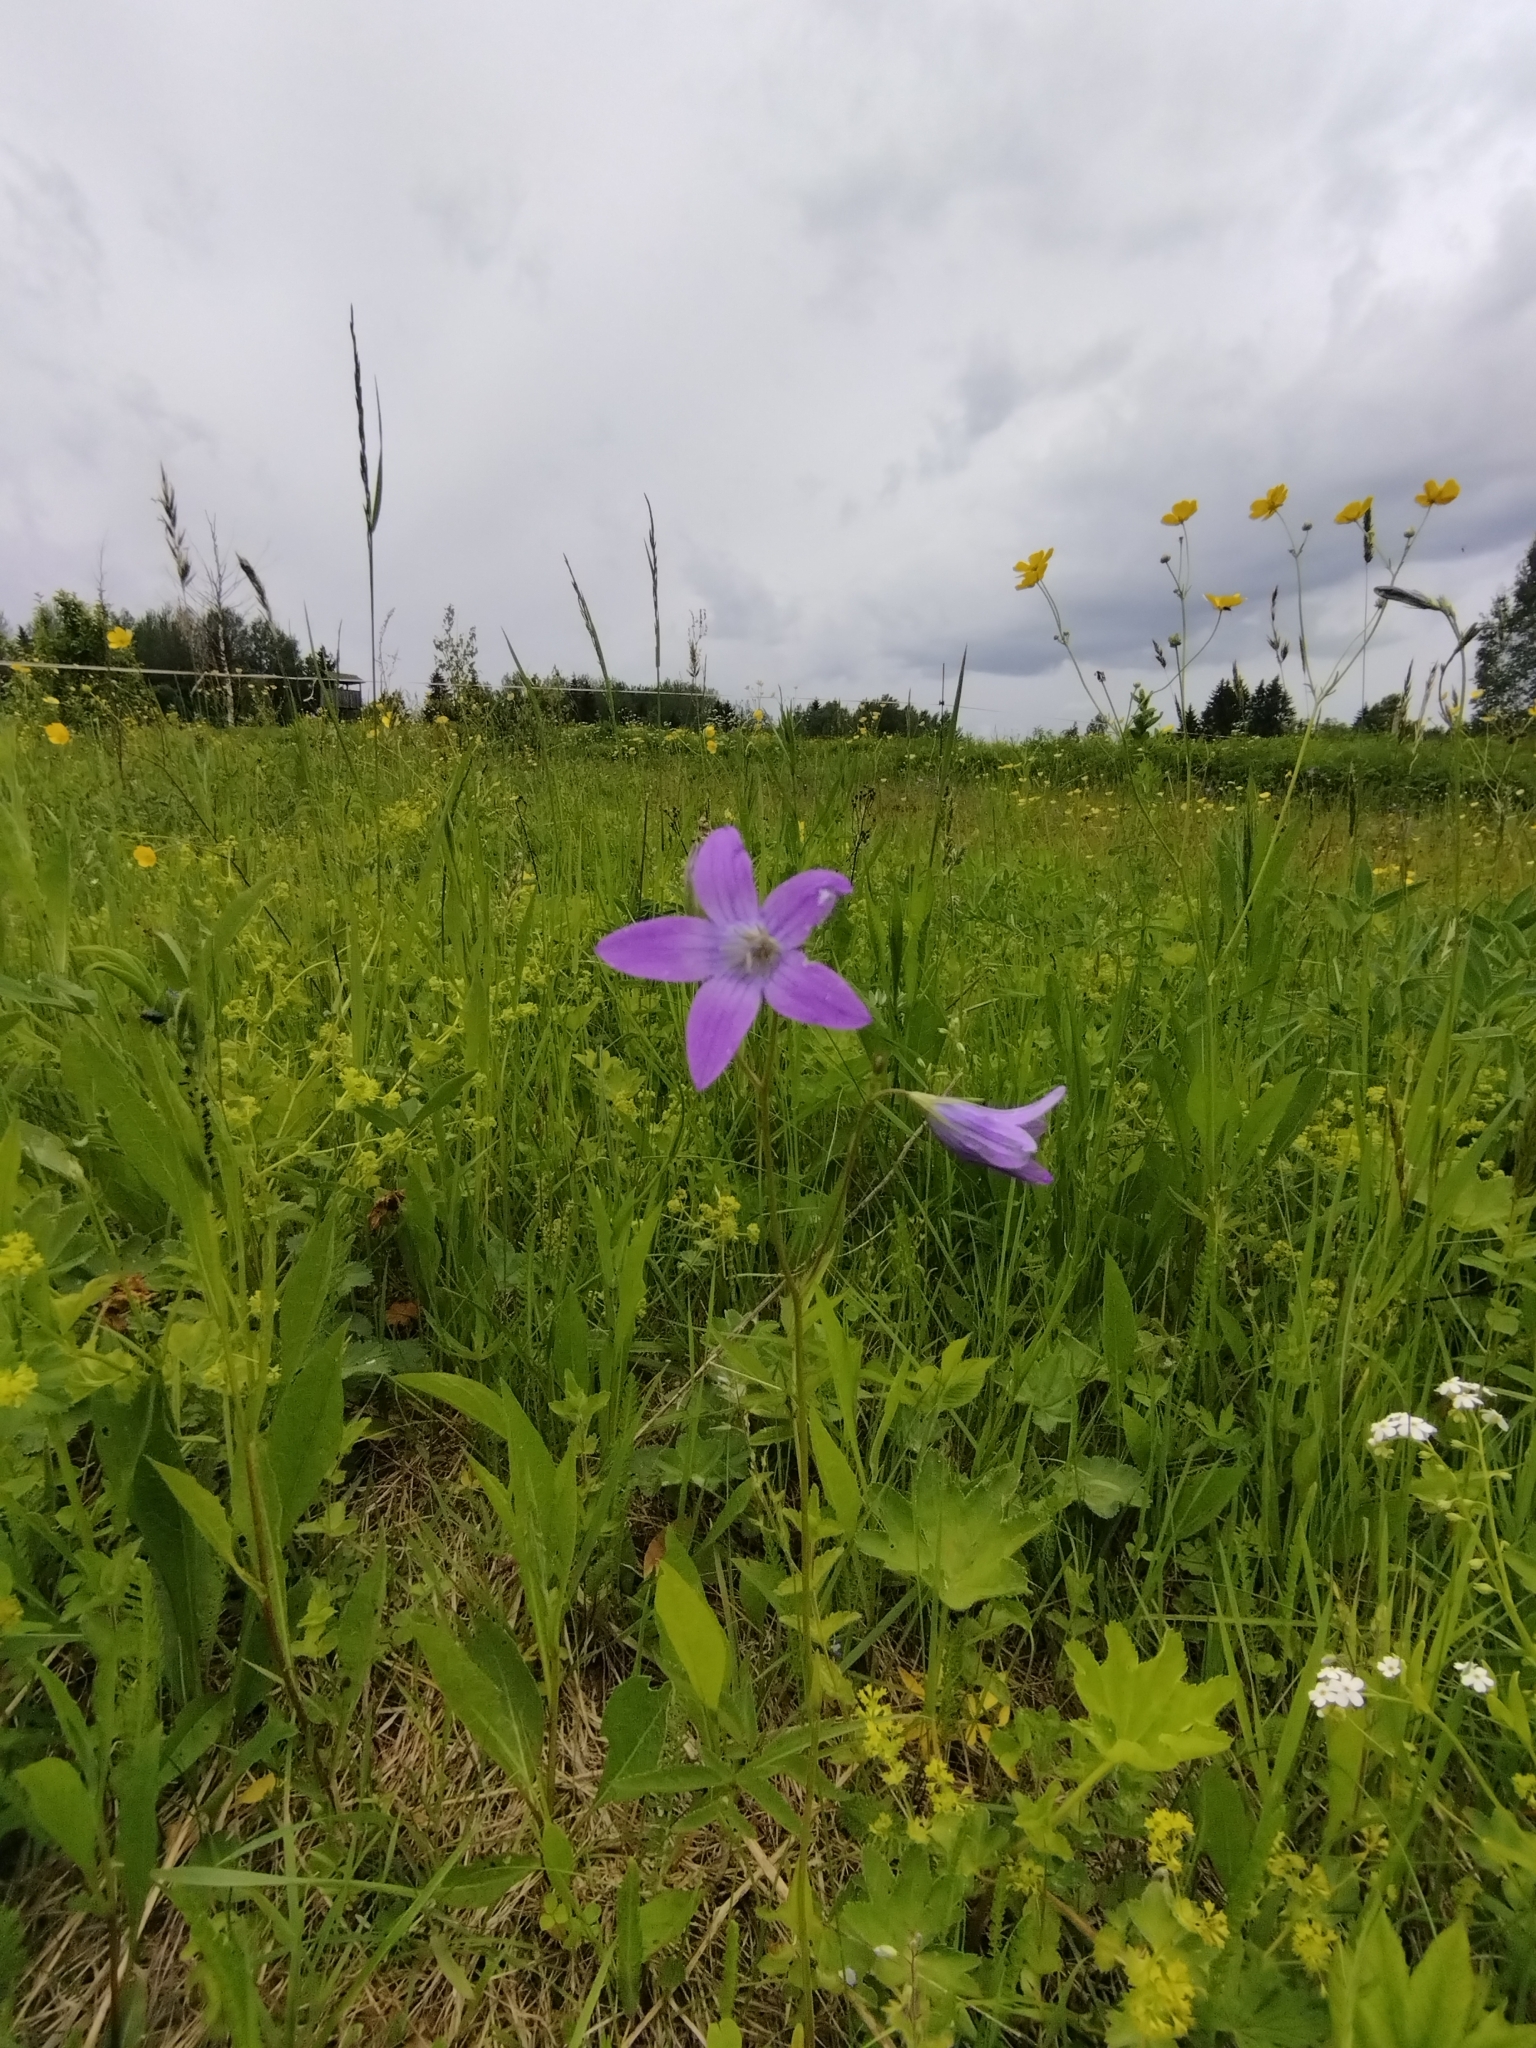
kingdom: Plantae
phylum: Tracheophyta
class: Magnoliopsida
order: Asterales
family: Campanulaceae
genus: Campanula
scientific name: Campanula patula
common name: Spreading bellflower
